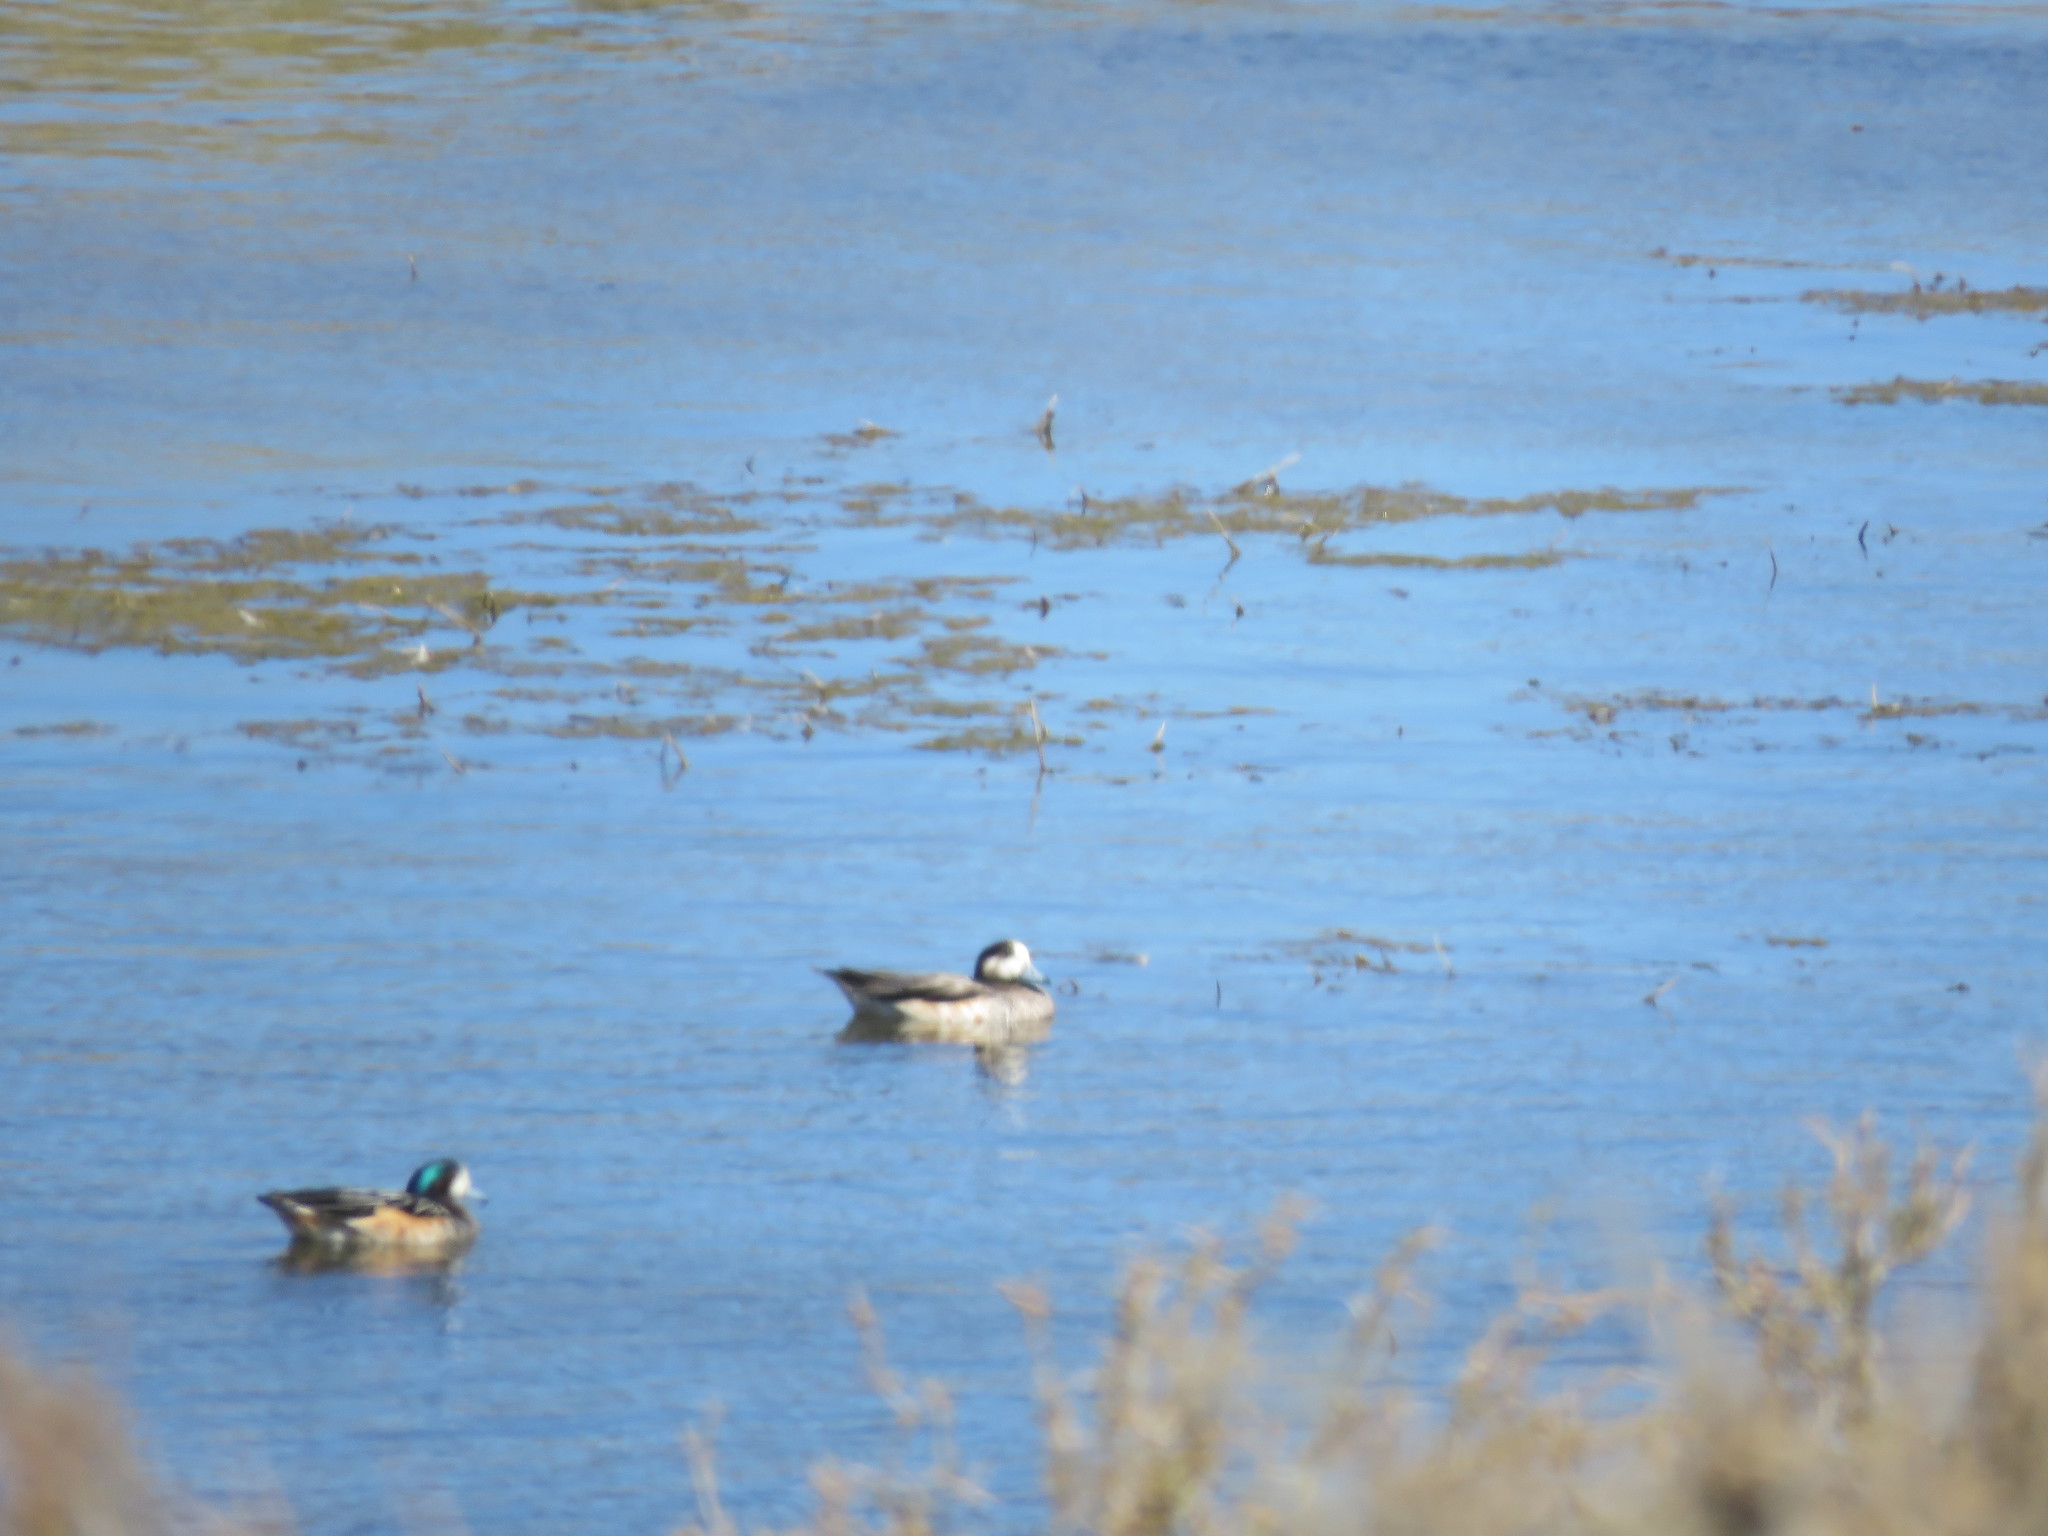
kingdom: Animalia
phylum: Chordata
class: Aves
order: Anseriformes
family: Anatidae
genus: Mareca
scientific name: Mareca sibilatrix
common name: Chiloe wigeon
